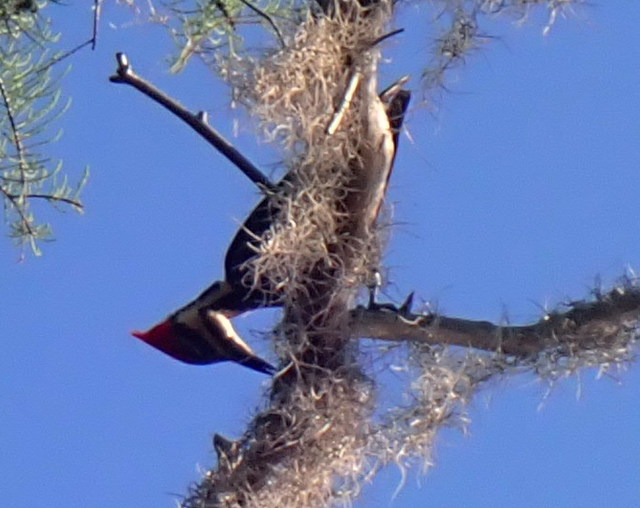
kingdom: Animalia
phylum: Chordata
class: Aves
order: Piciformes
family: Picidae
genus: Dryocopus
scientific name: Dryocopus pileatus
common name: Pileated woodpecker
